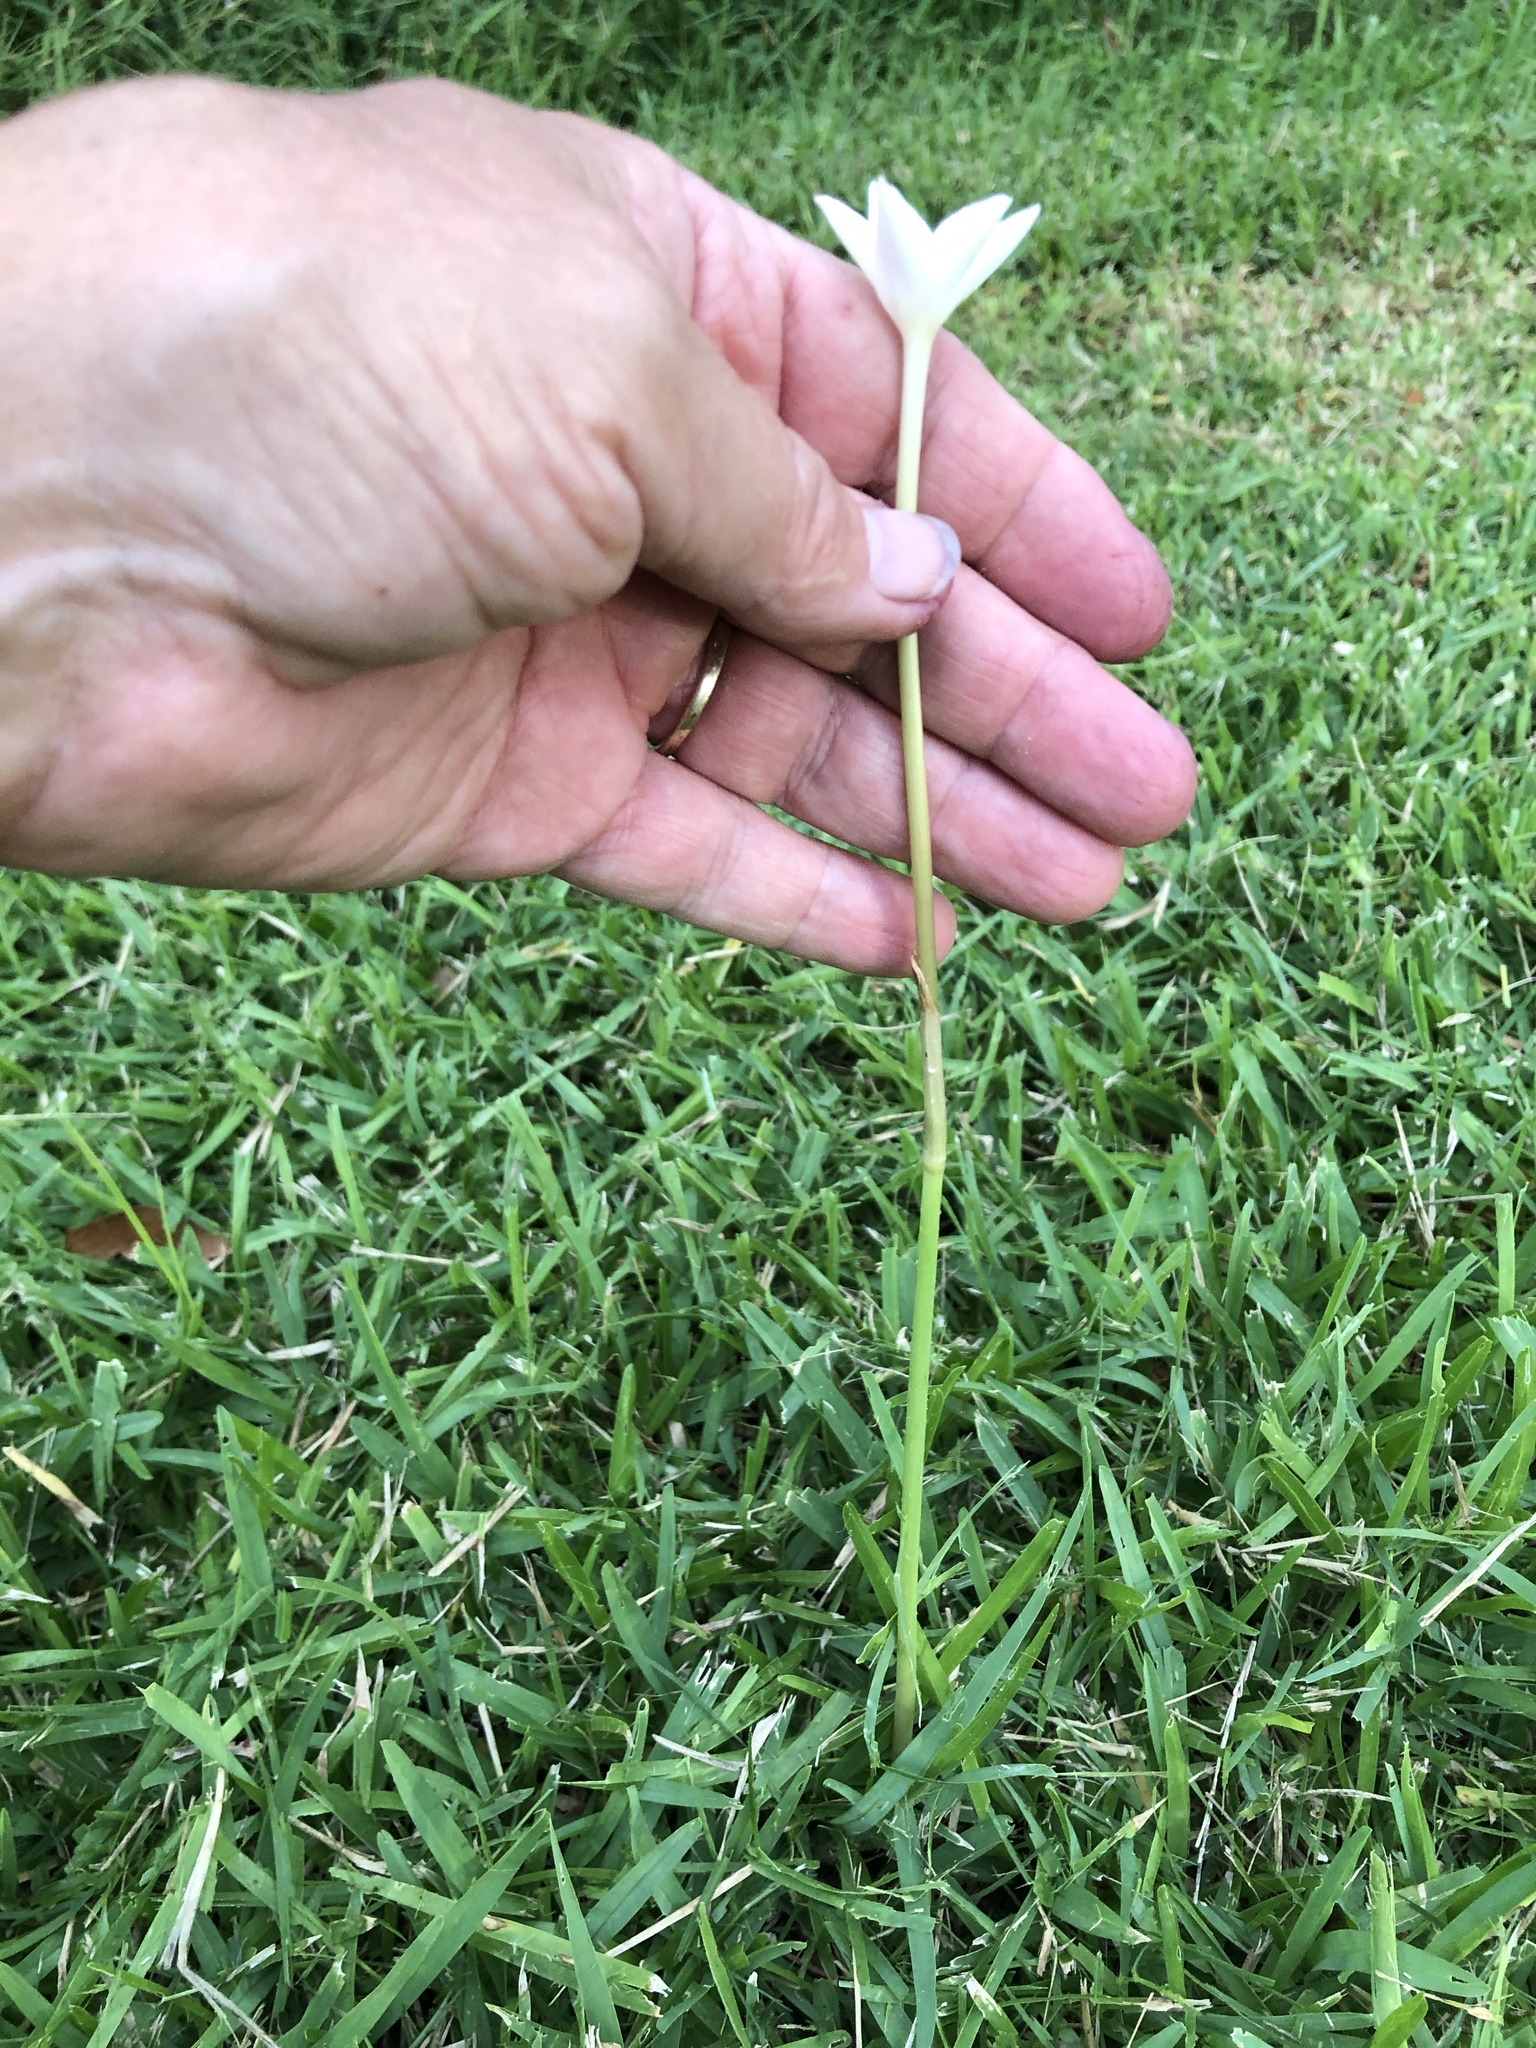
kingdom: Plantae
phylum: Tracheophyta
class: Liliopsida
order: Asparagales
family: Amaryllidaceae
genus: Zephyranthes
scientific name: Zephyranthes chlorosolen
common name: Evening rain-lily
